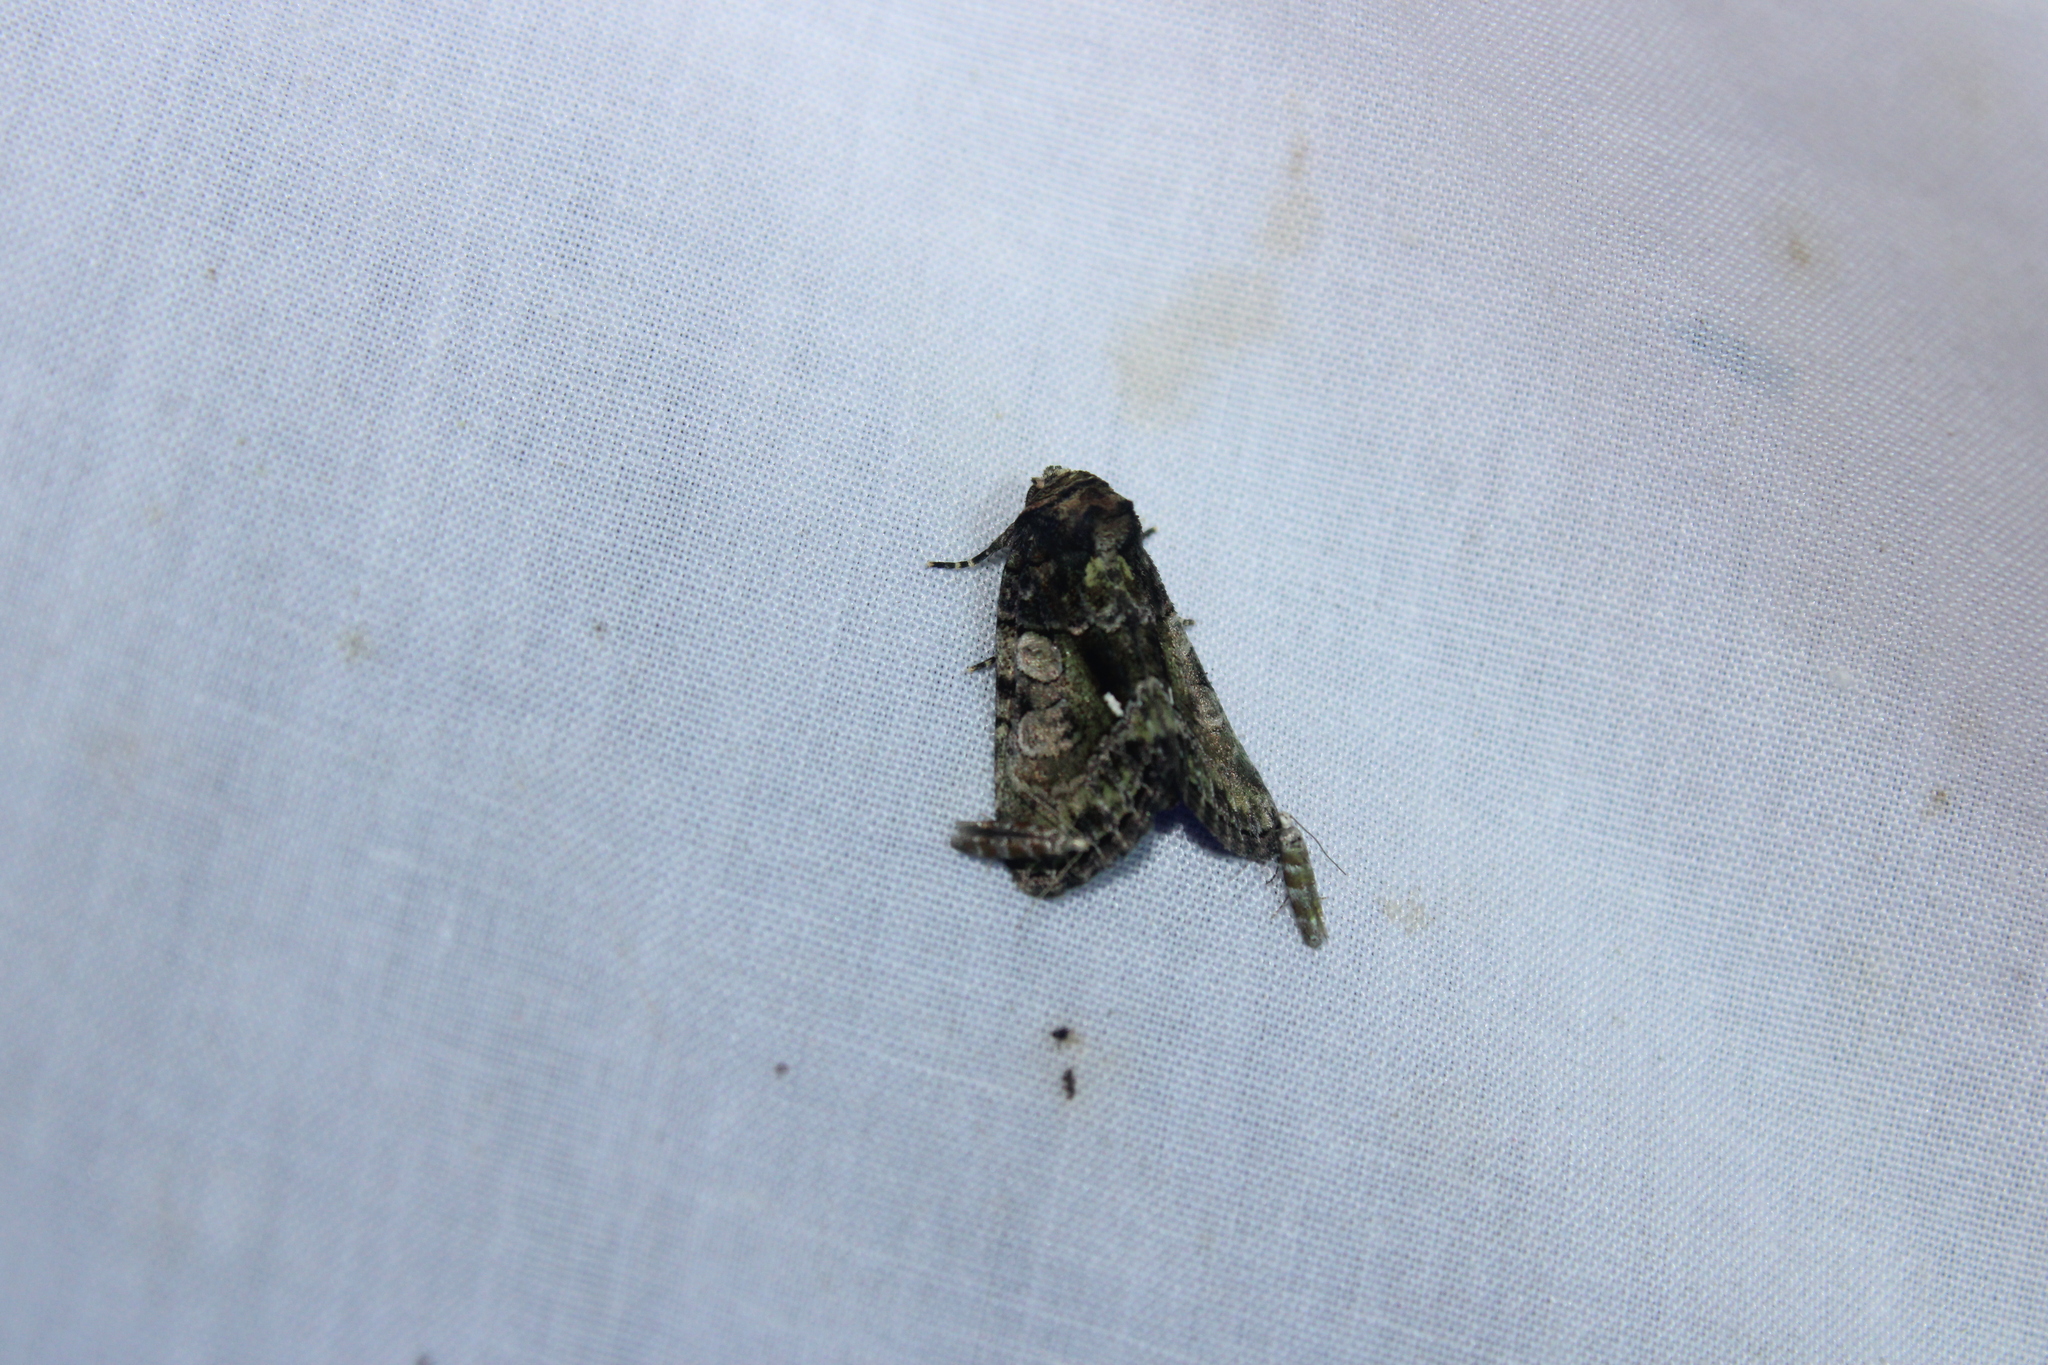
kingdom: Animalia
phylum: Arthropoda
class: Insecta
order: Lepidoptera
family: Noctuidae
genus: Chytonix
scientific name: Chytonix palliatricula
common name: Cloaked marvel
